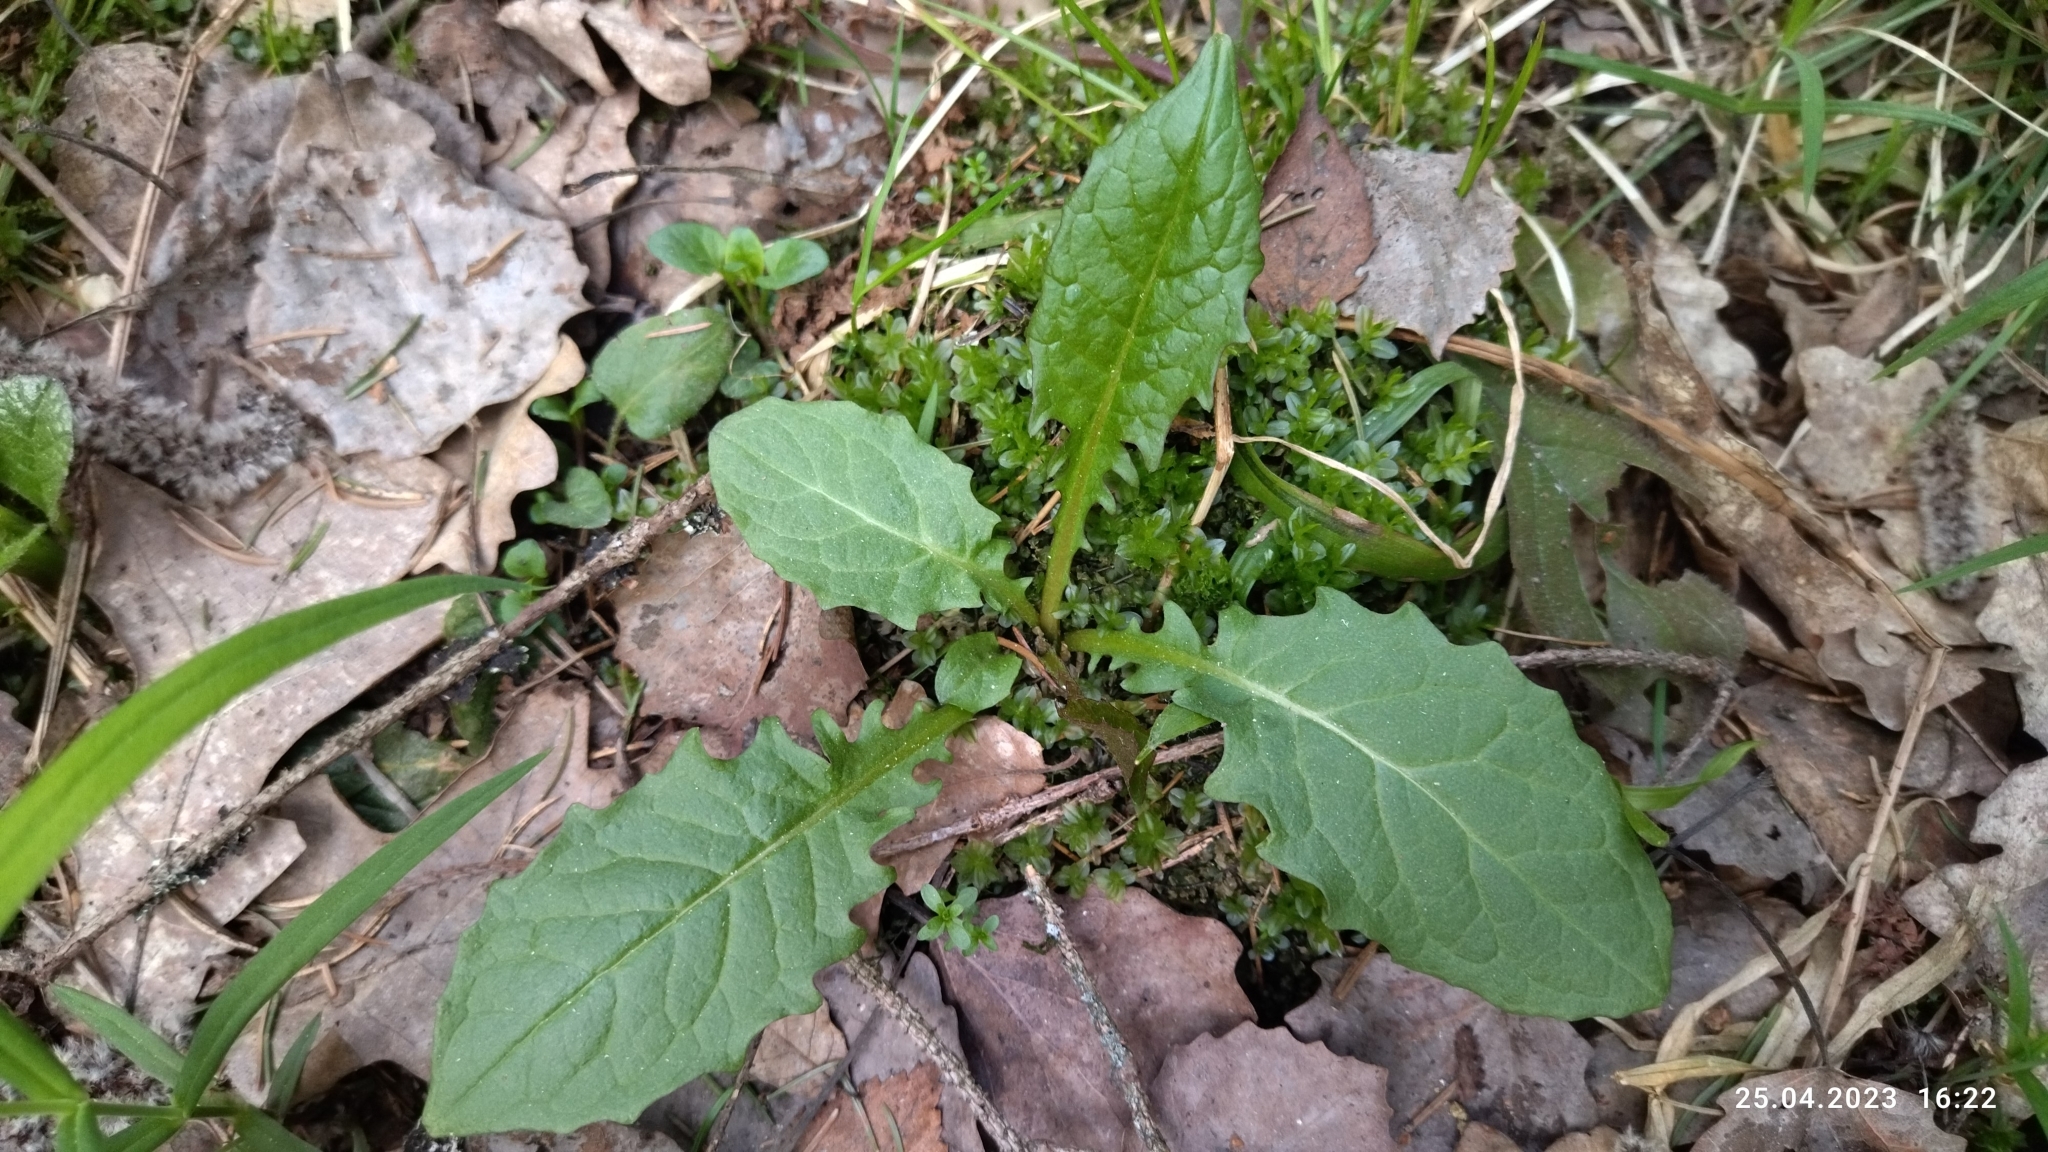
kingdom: Plantae
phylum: Tracheophyta
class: Magnoliopsida
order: Asterales
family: Asteraceae
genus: Crepis
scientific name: Crepis paludosa
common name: Marsh hawk's-beard
